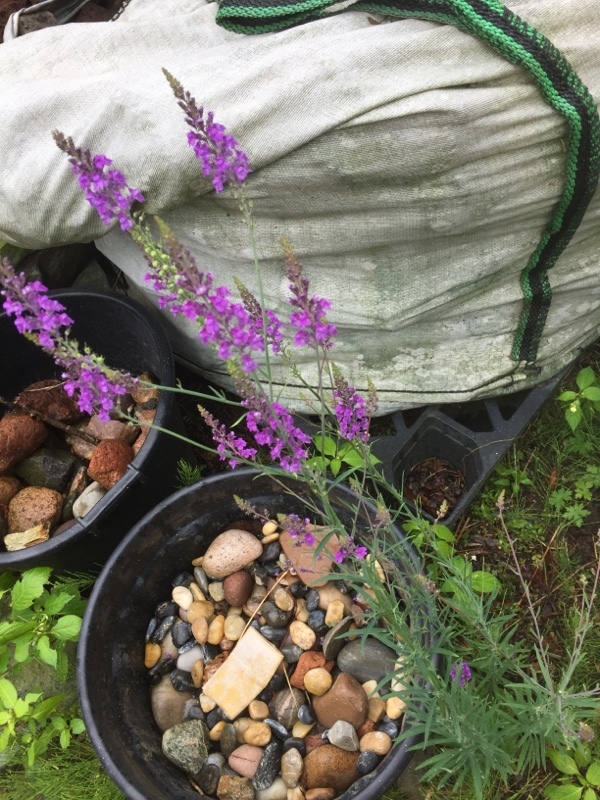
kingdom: Plantae
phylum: Tracheophyta
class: Magnoliopsida
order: Lamiales
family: Plantaginaceae
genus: Linaria
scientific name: Linaria purpurea
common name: Purple toadflax
